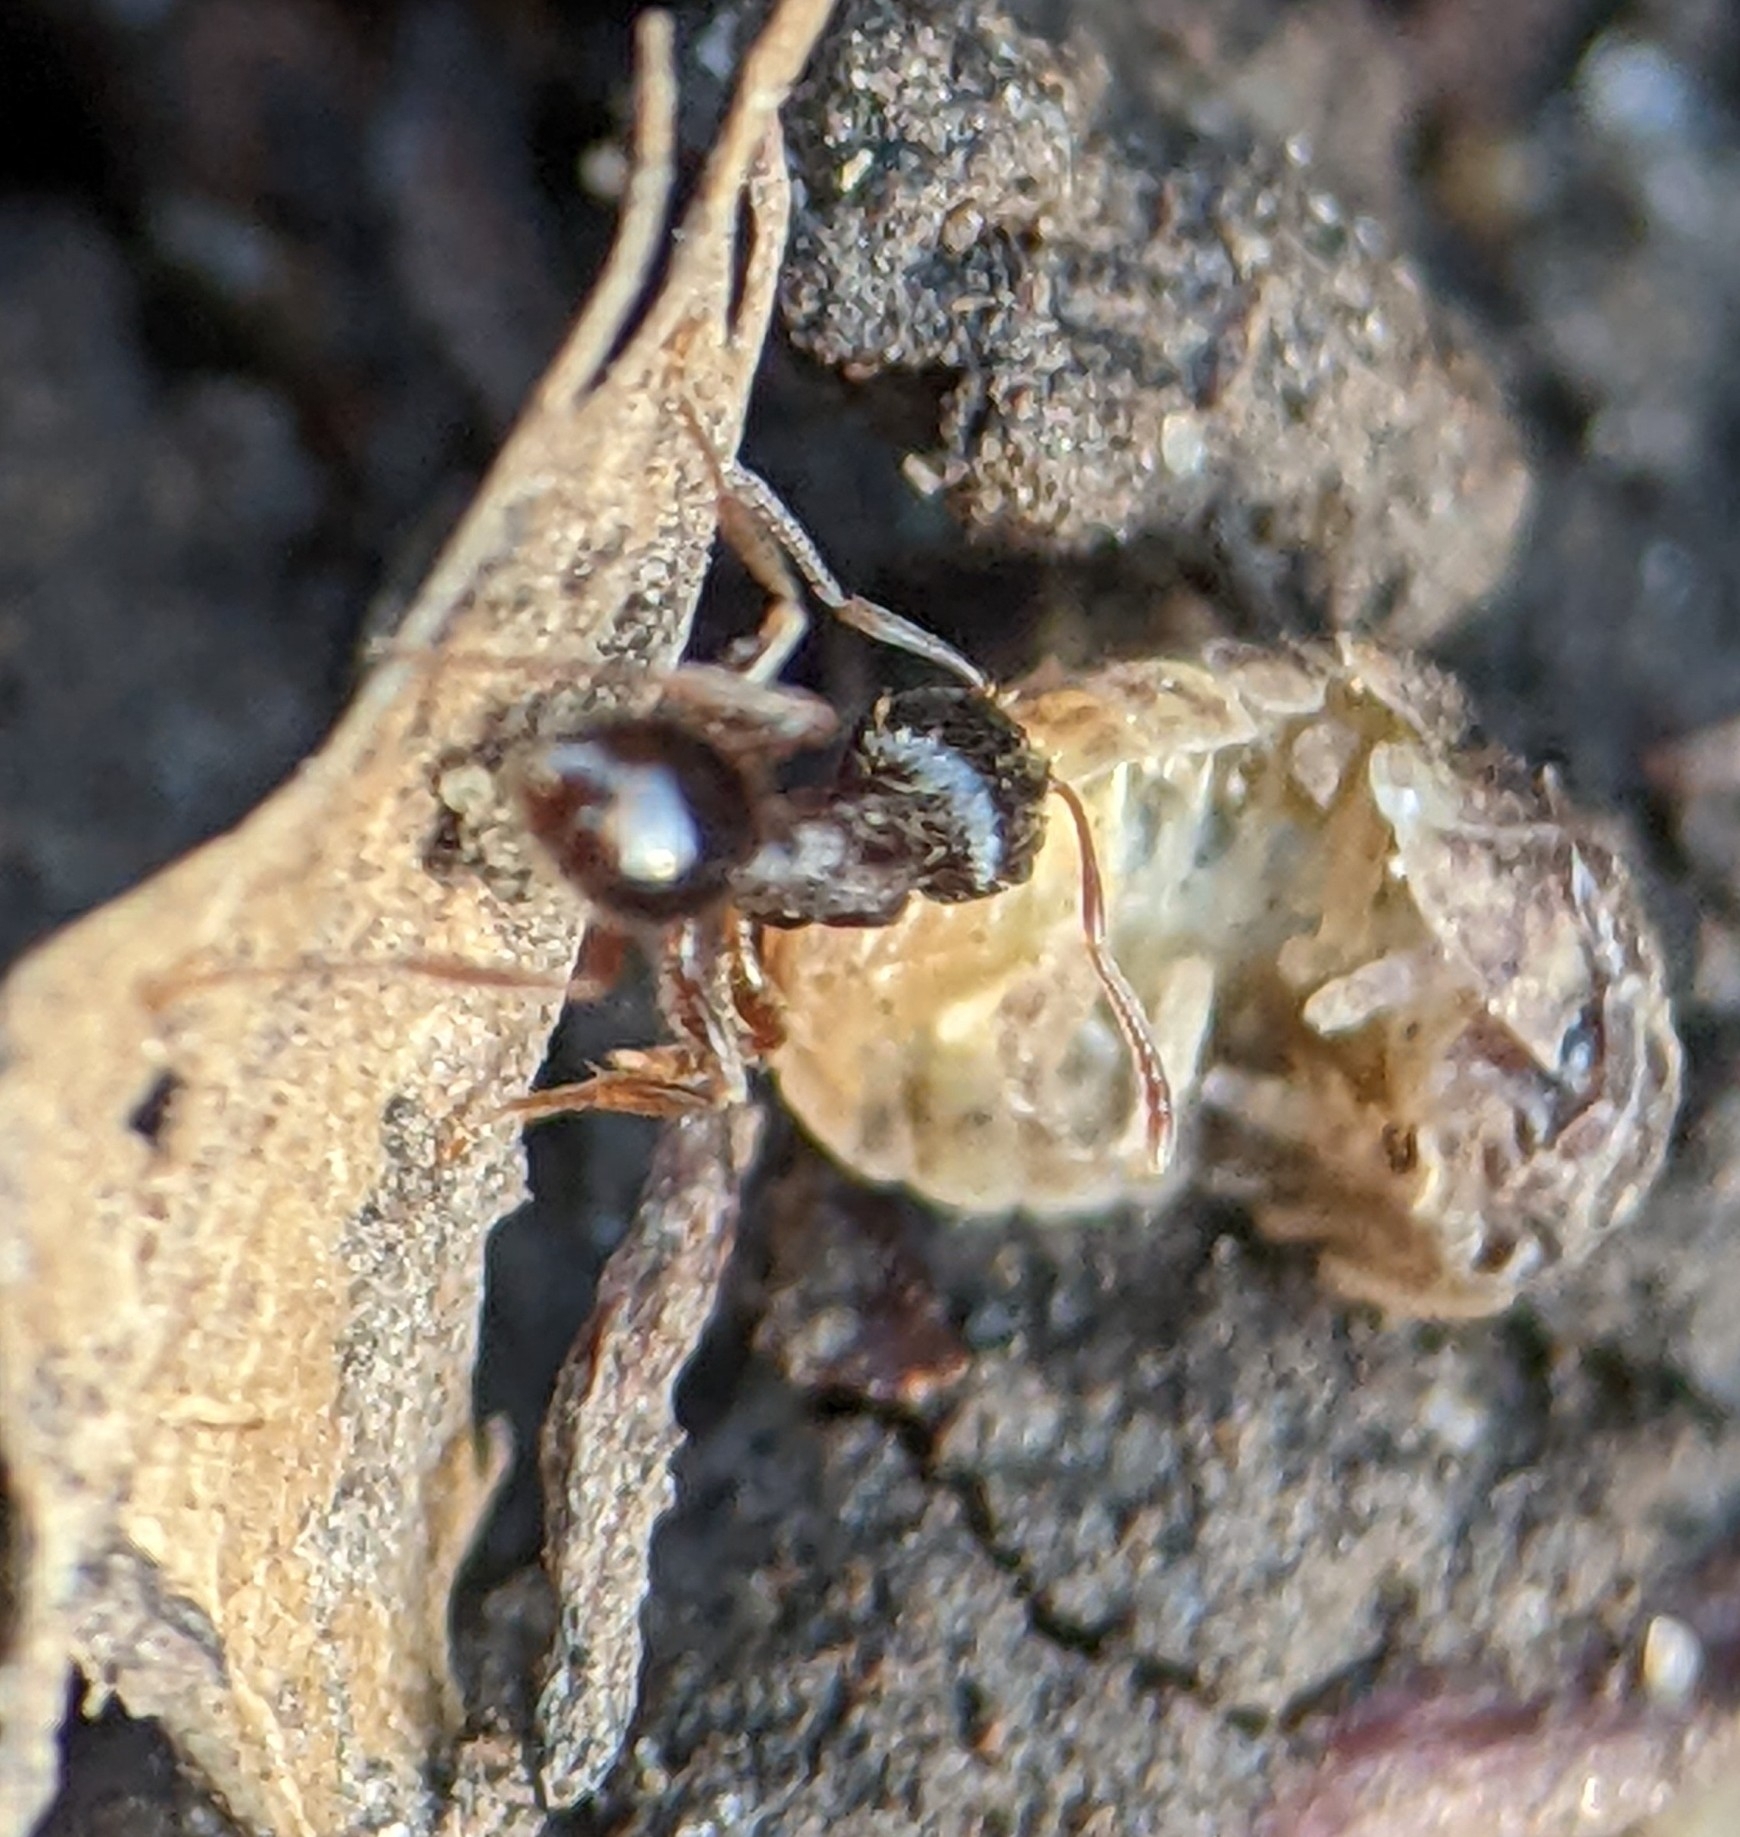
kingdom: Animalia
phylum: Arthropoda
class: Insecta
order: Hymenoptera
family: Formicidae
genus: Tetramorium
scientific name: Tetramorium immigrans
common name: Pavement ant
